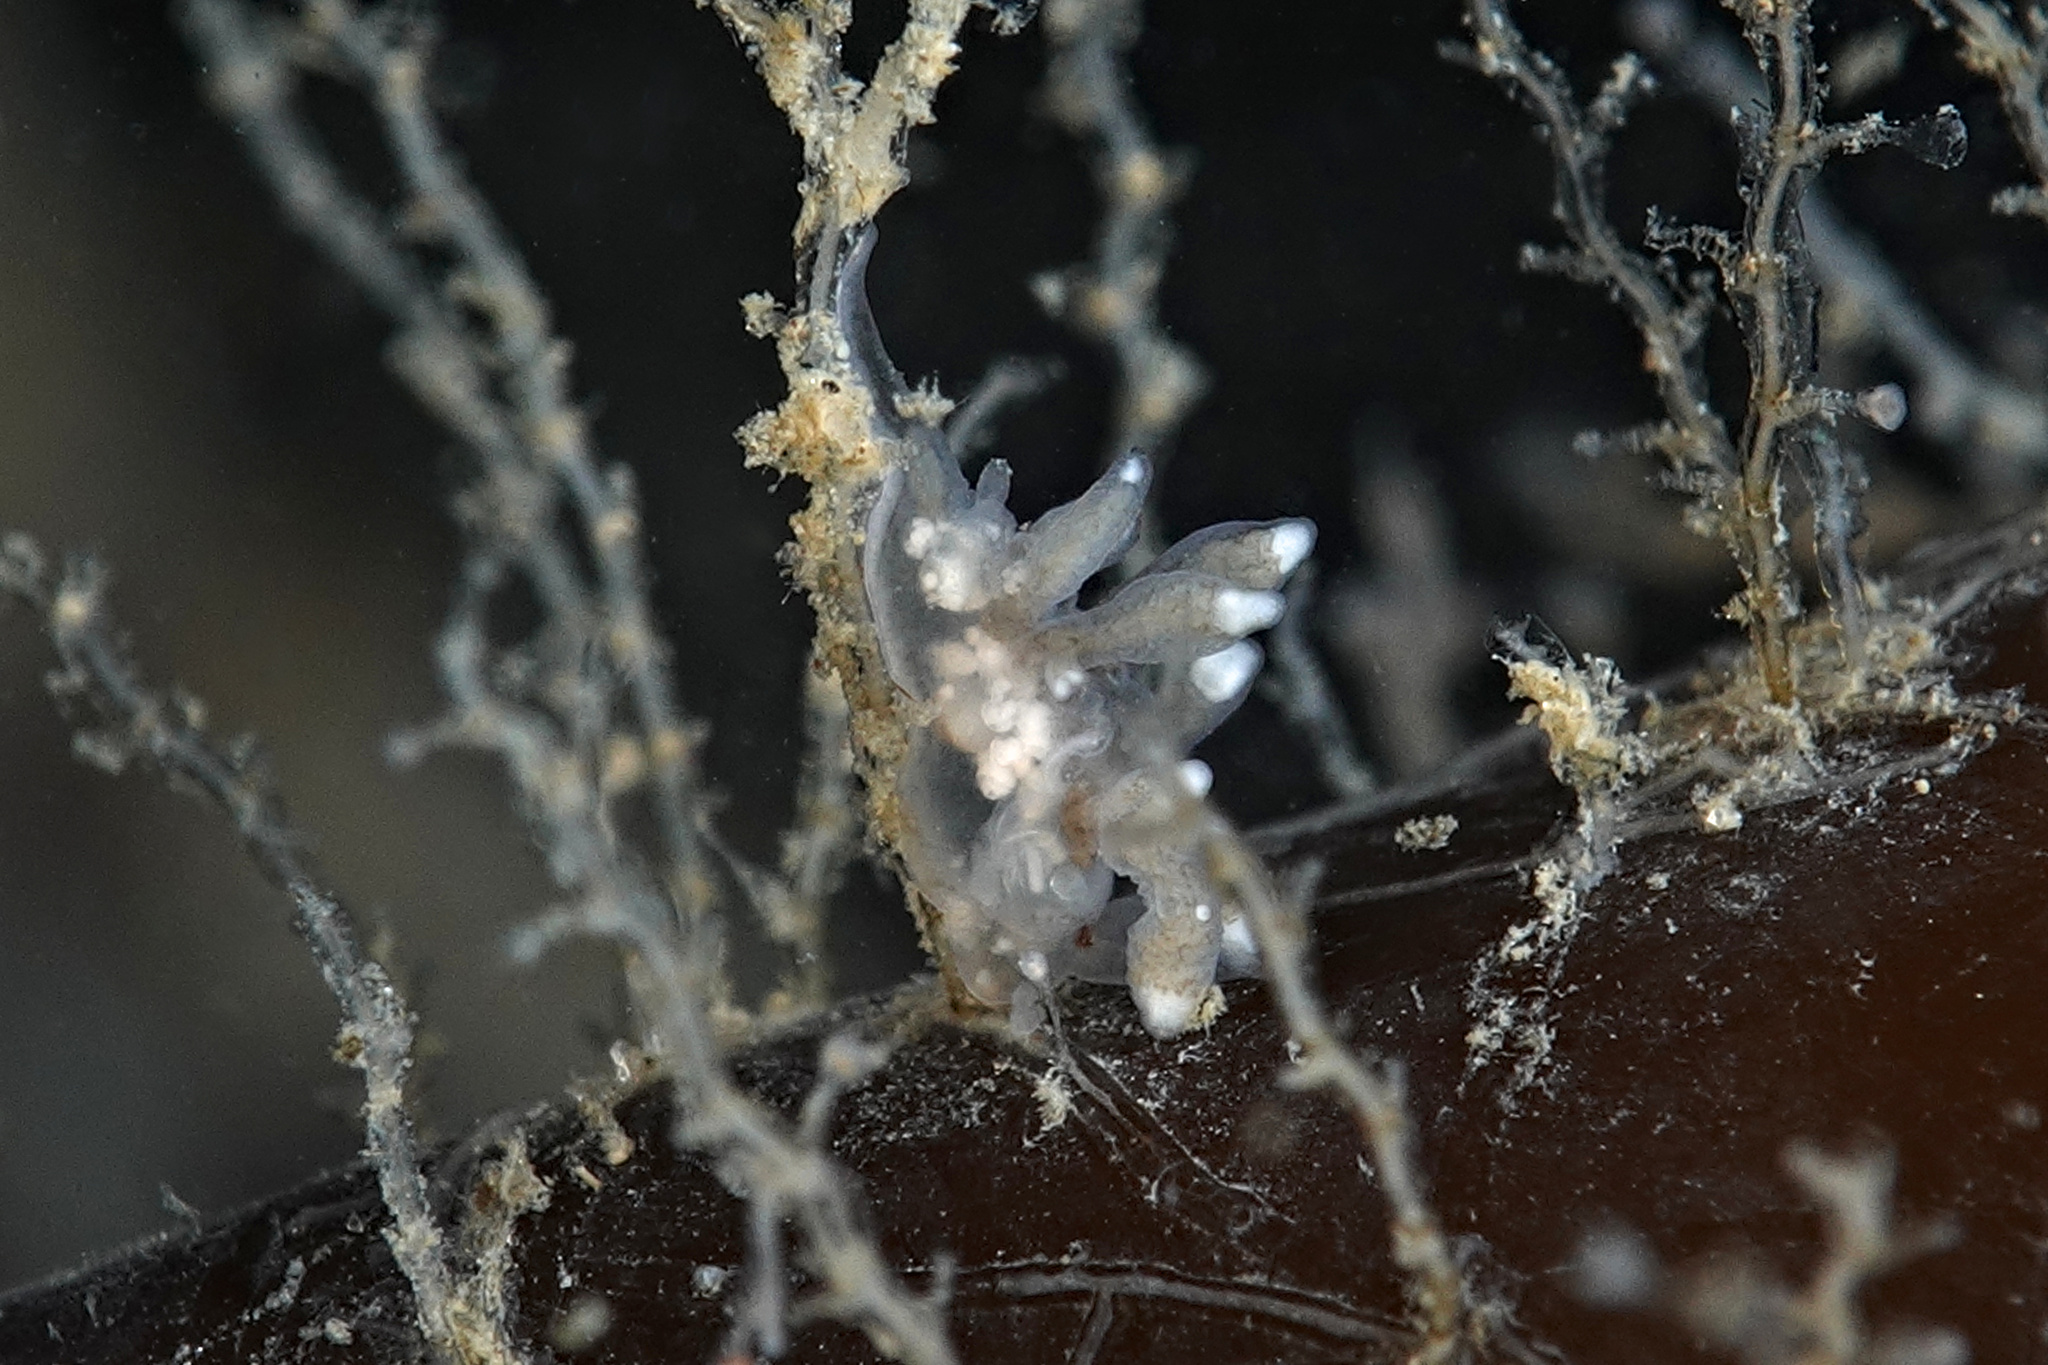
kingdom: Animalia
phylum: Mollusca
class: Gastropoda
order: Nudibranchia
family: Tergipedidae
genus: Tergipes
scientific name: Tergipes tergipes
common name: Johnston's balloon eolis
